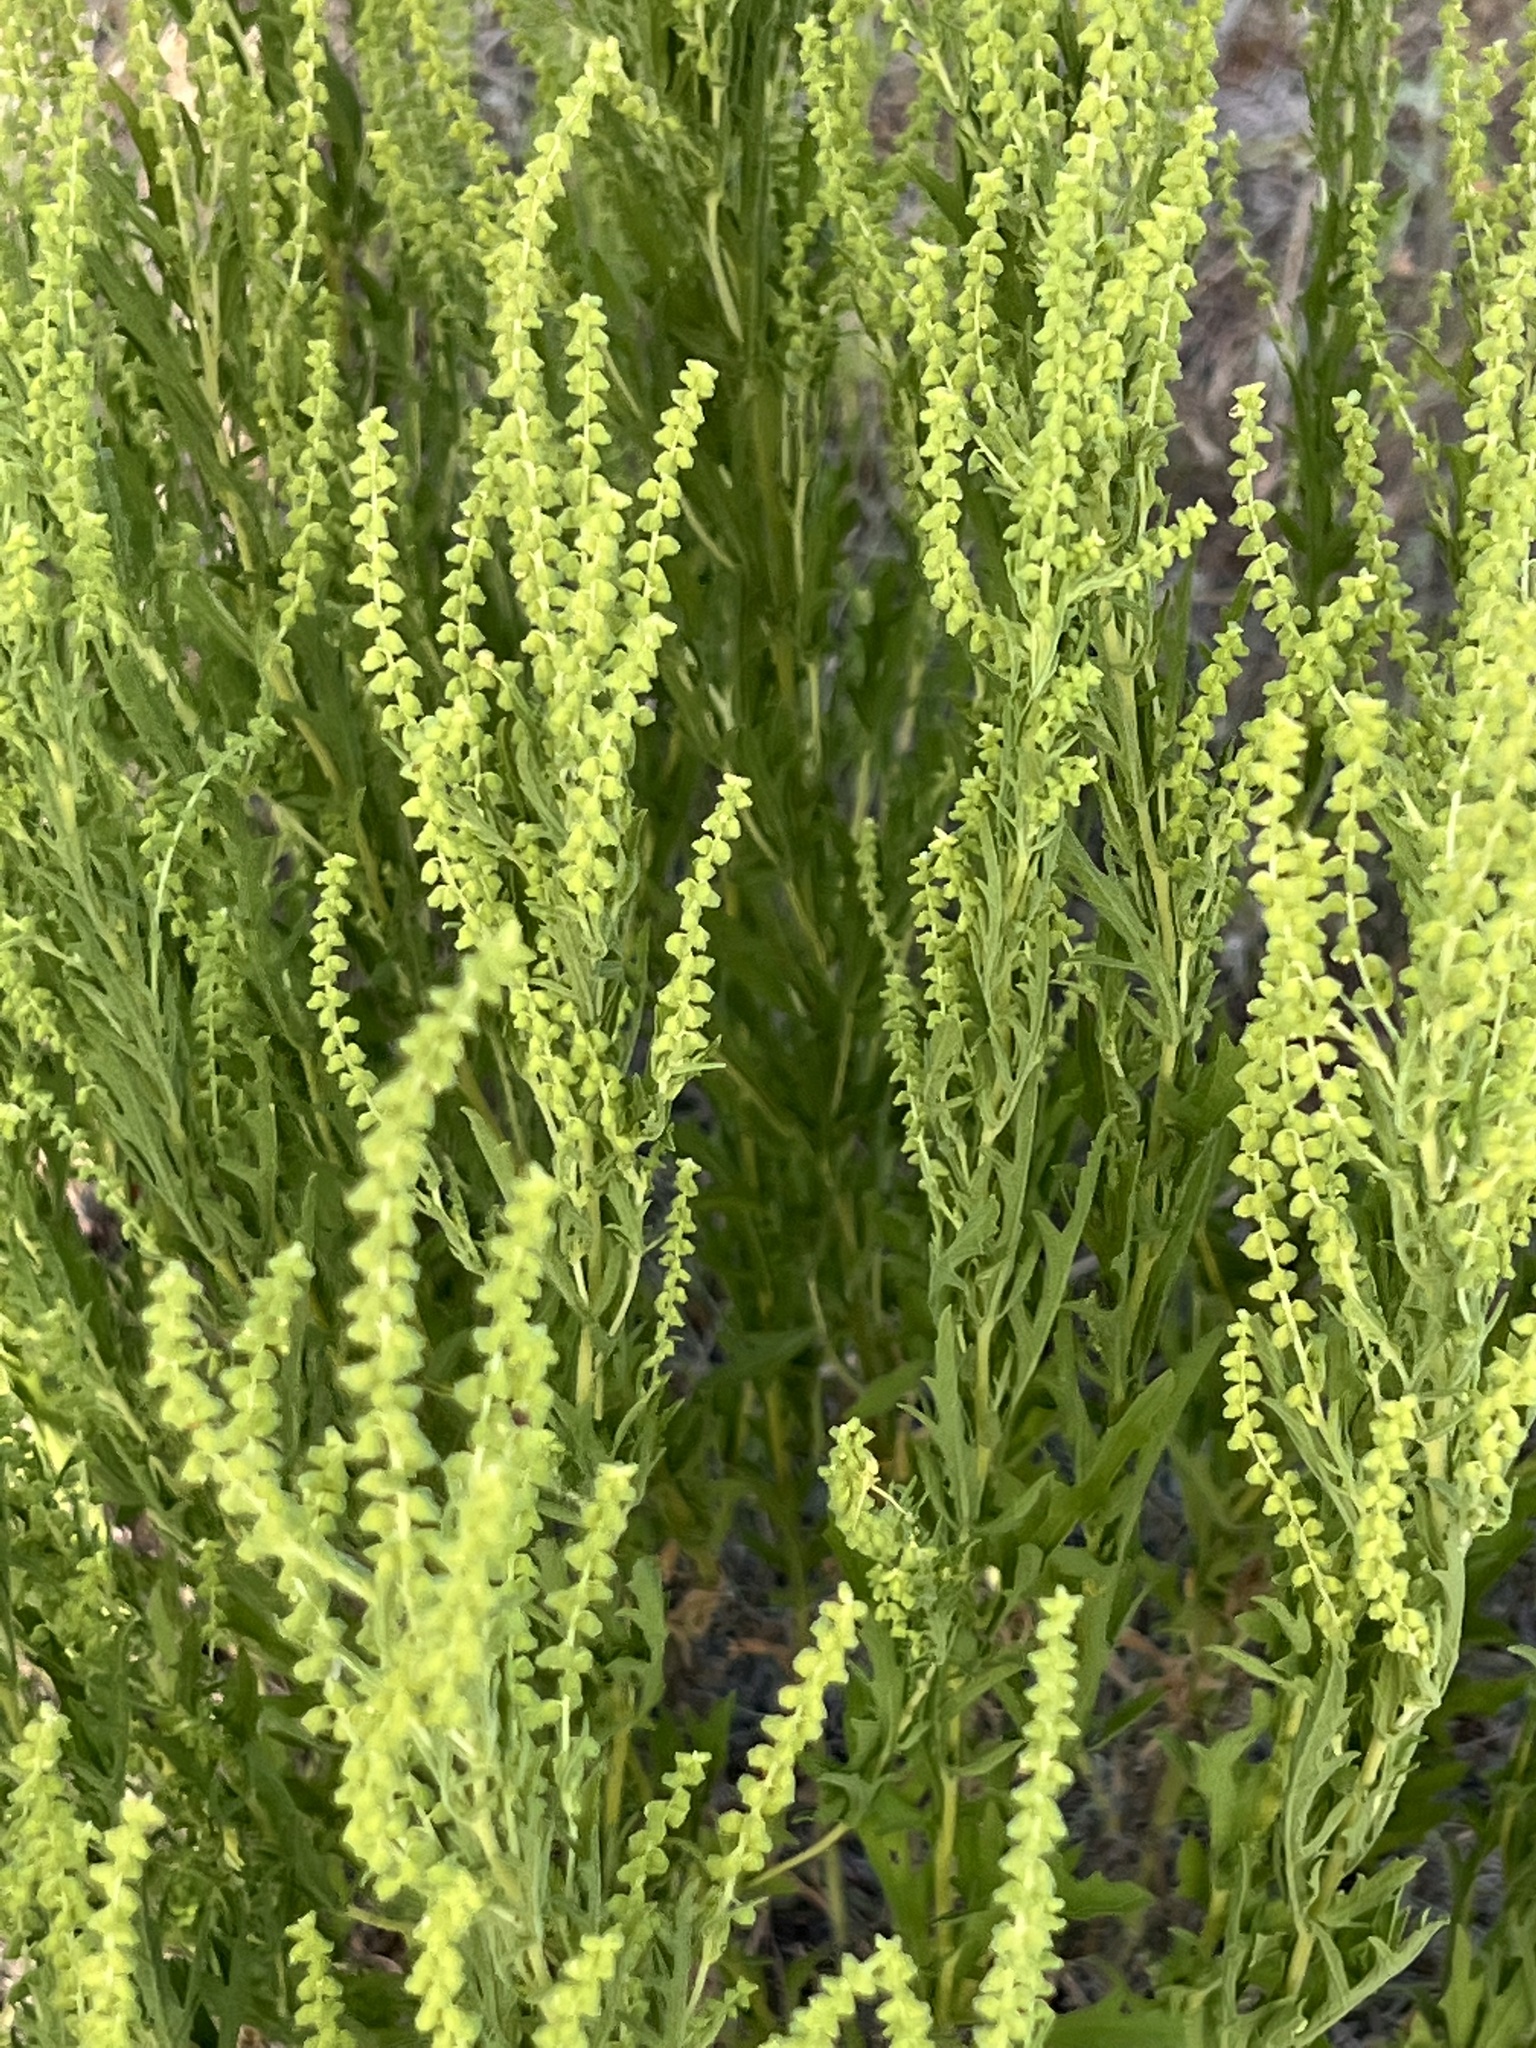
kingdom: Plantae
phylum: Tracheophyta
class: Magnoliopsida
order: Asterales
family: Asteraceae
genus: Ambrosia
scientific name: Ambrosia psilostachya
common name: Perennial ragweed
